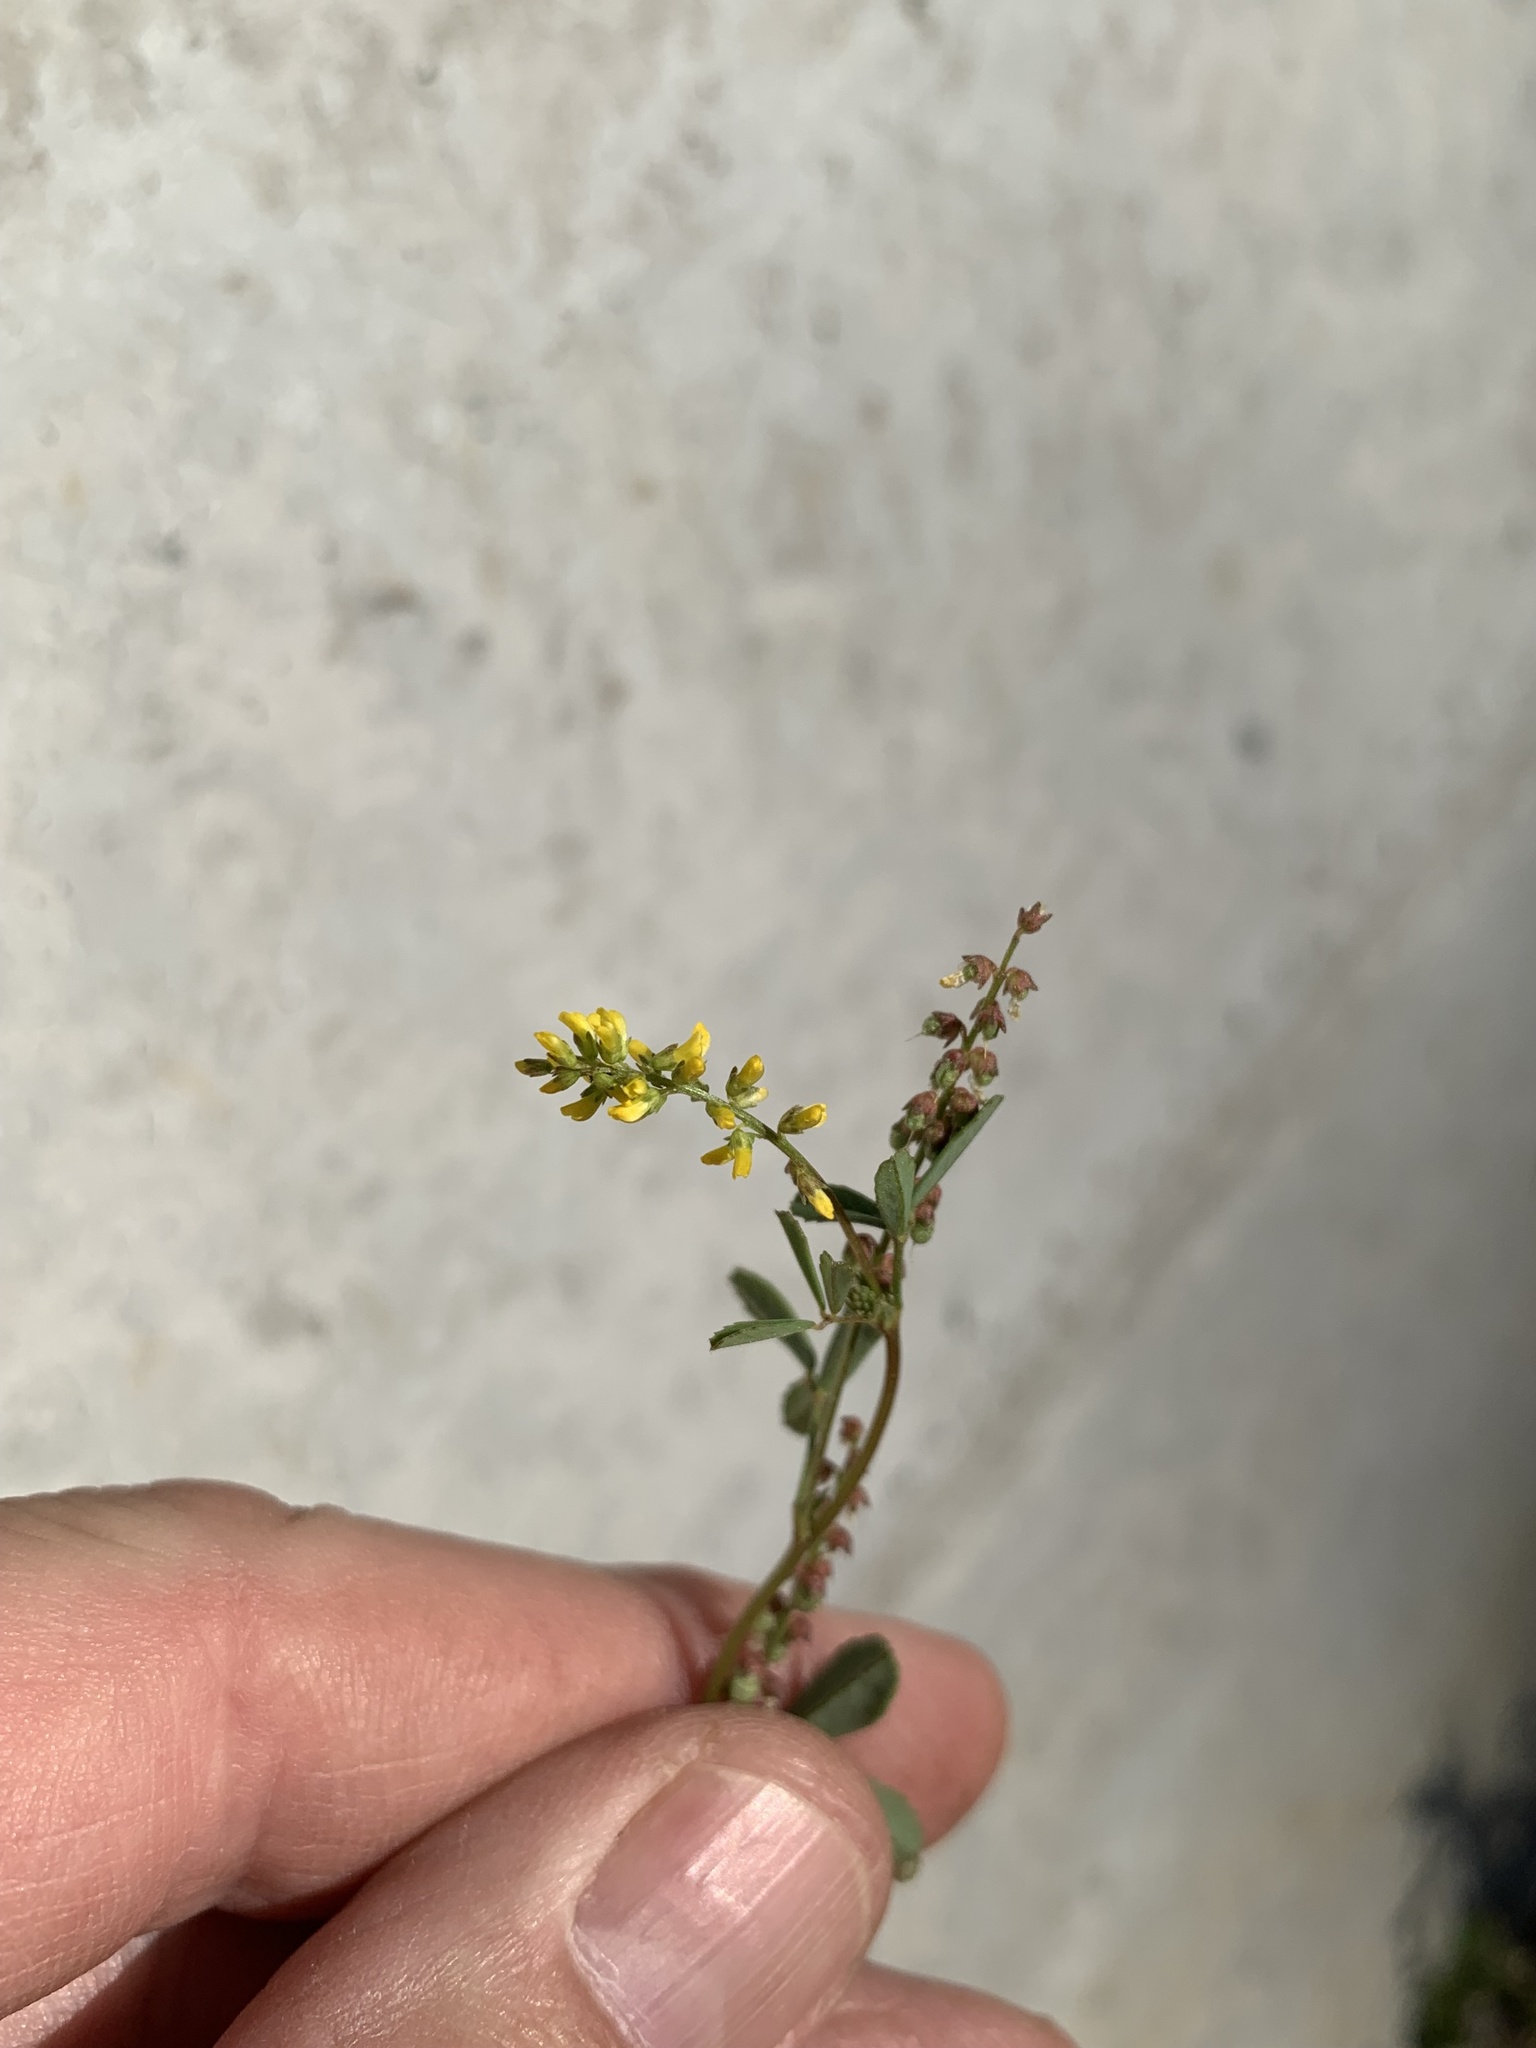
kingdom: Plantae
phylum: Tracheophyta
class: Magnoliopsida
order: Fabales
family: Fabaceae
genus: Melilotus
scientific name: Melilotus indicus
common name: Small melilot
